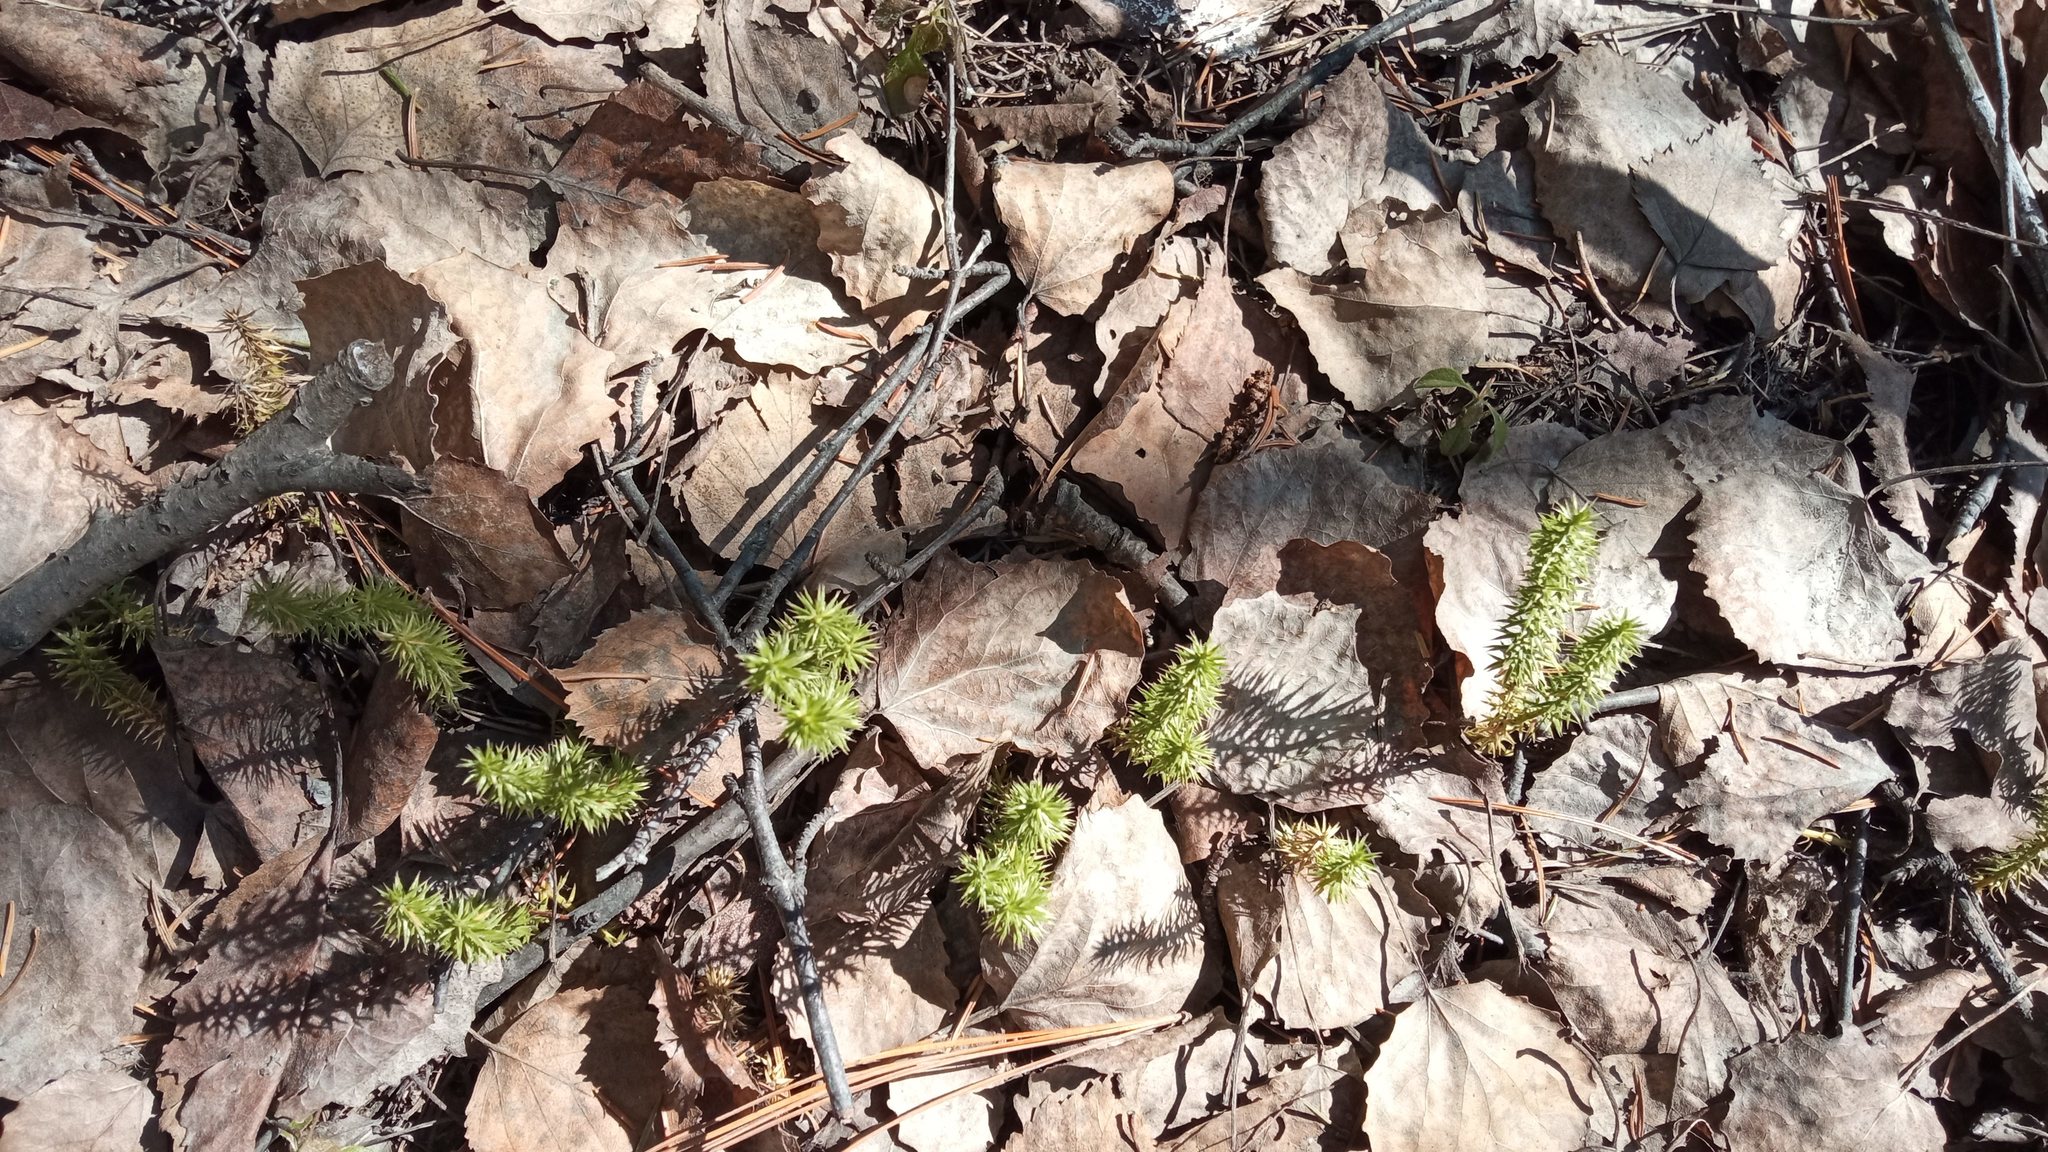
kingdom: Plantae
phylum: Tracheophyta
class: Lycopodiopsida
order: Lycopodiales
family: Lycopodiaceae
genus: Spinulum
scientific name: Spinulum annotinum
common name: Interrupted club-moss
